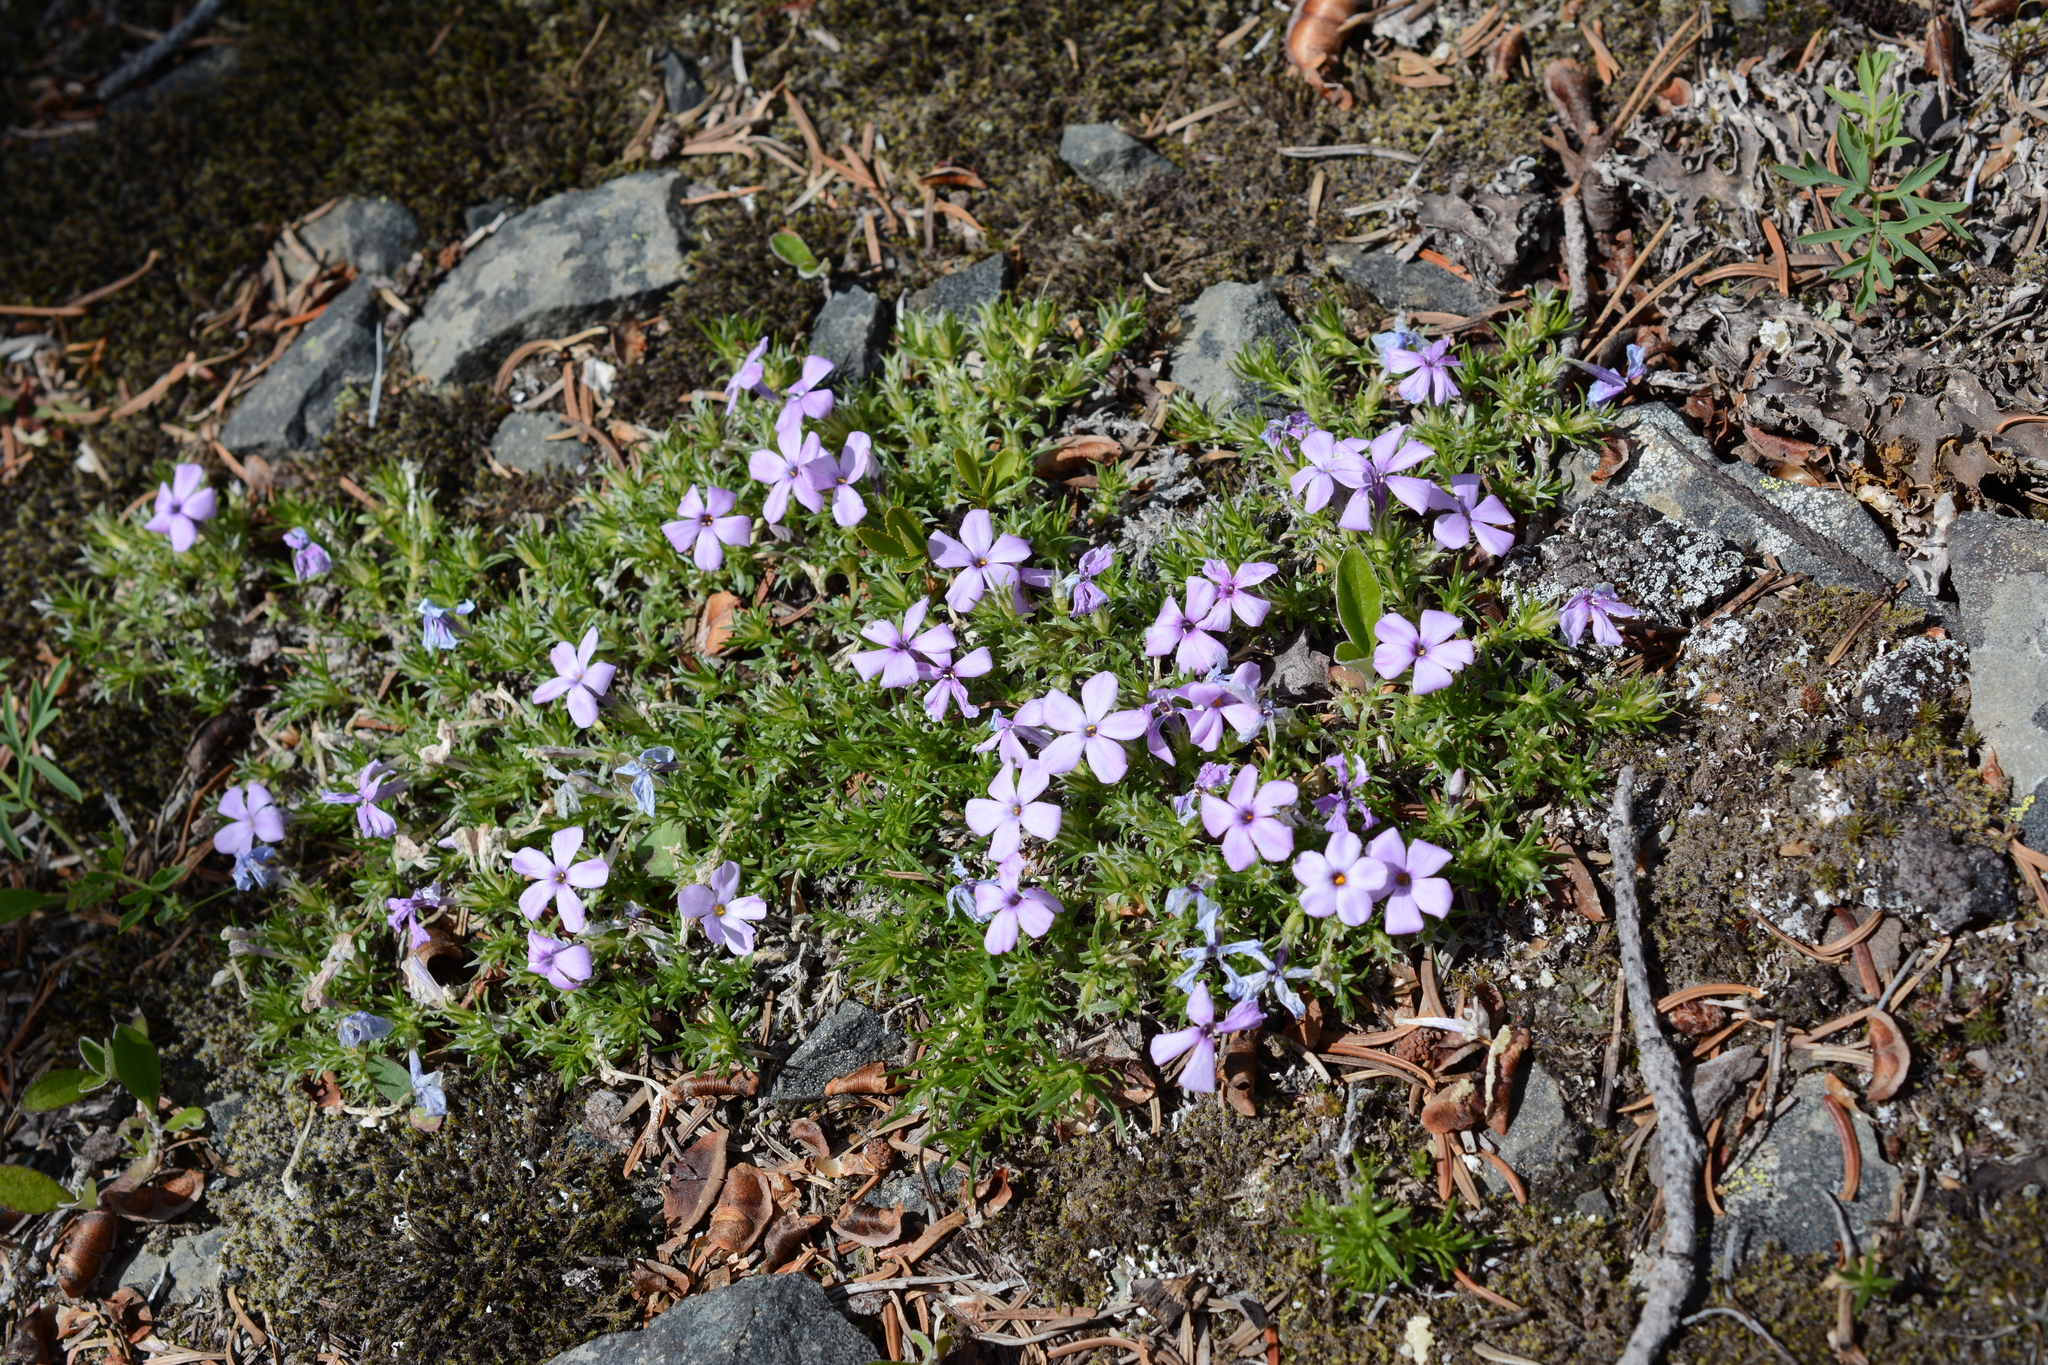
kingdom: Plantae
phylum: Tracheophyta
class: Magnoliopsida
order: Ericales
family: Polemoniaceae
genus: Phlox
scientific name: Phlox diffusa
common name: Mat phlox
